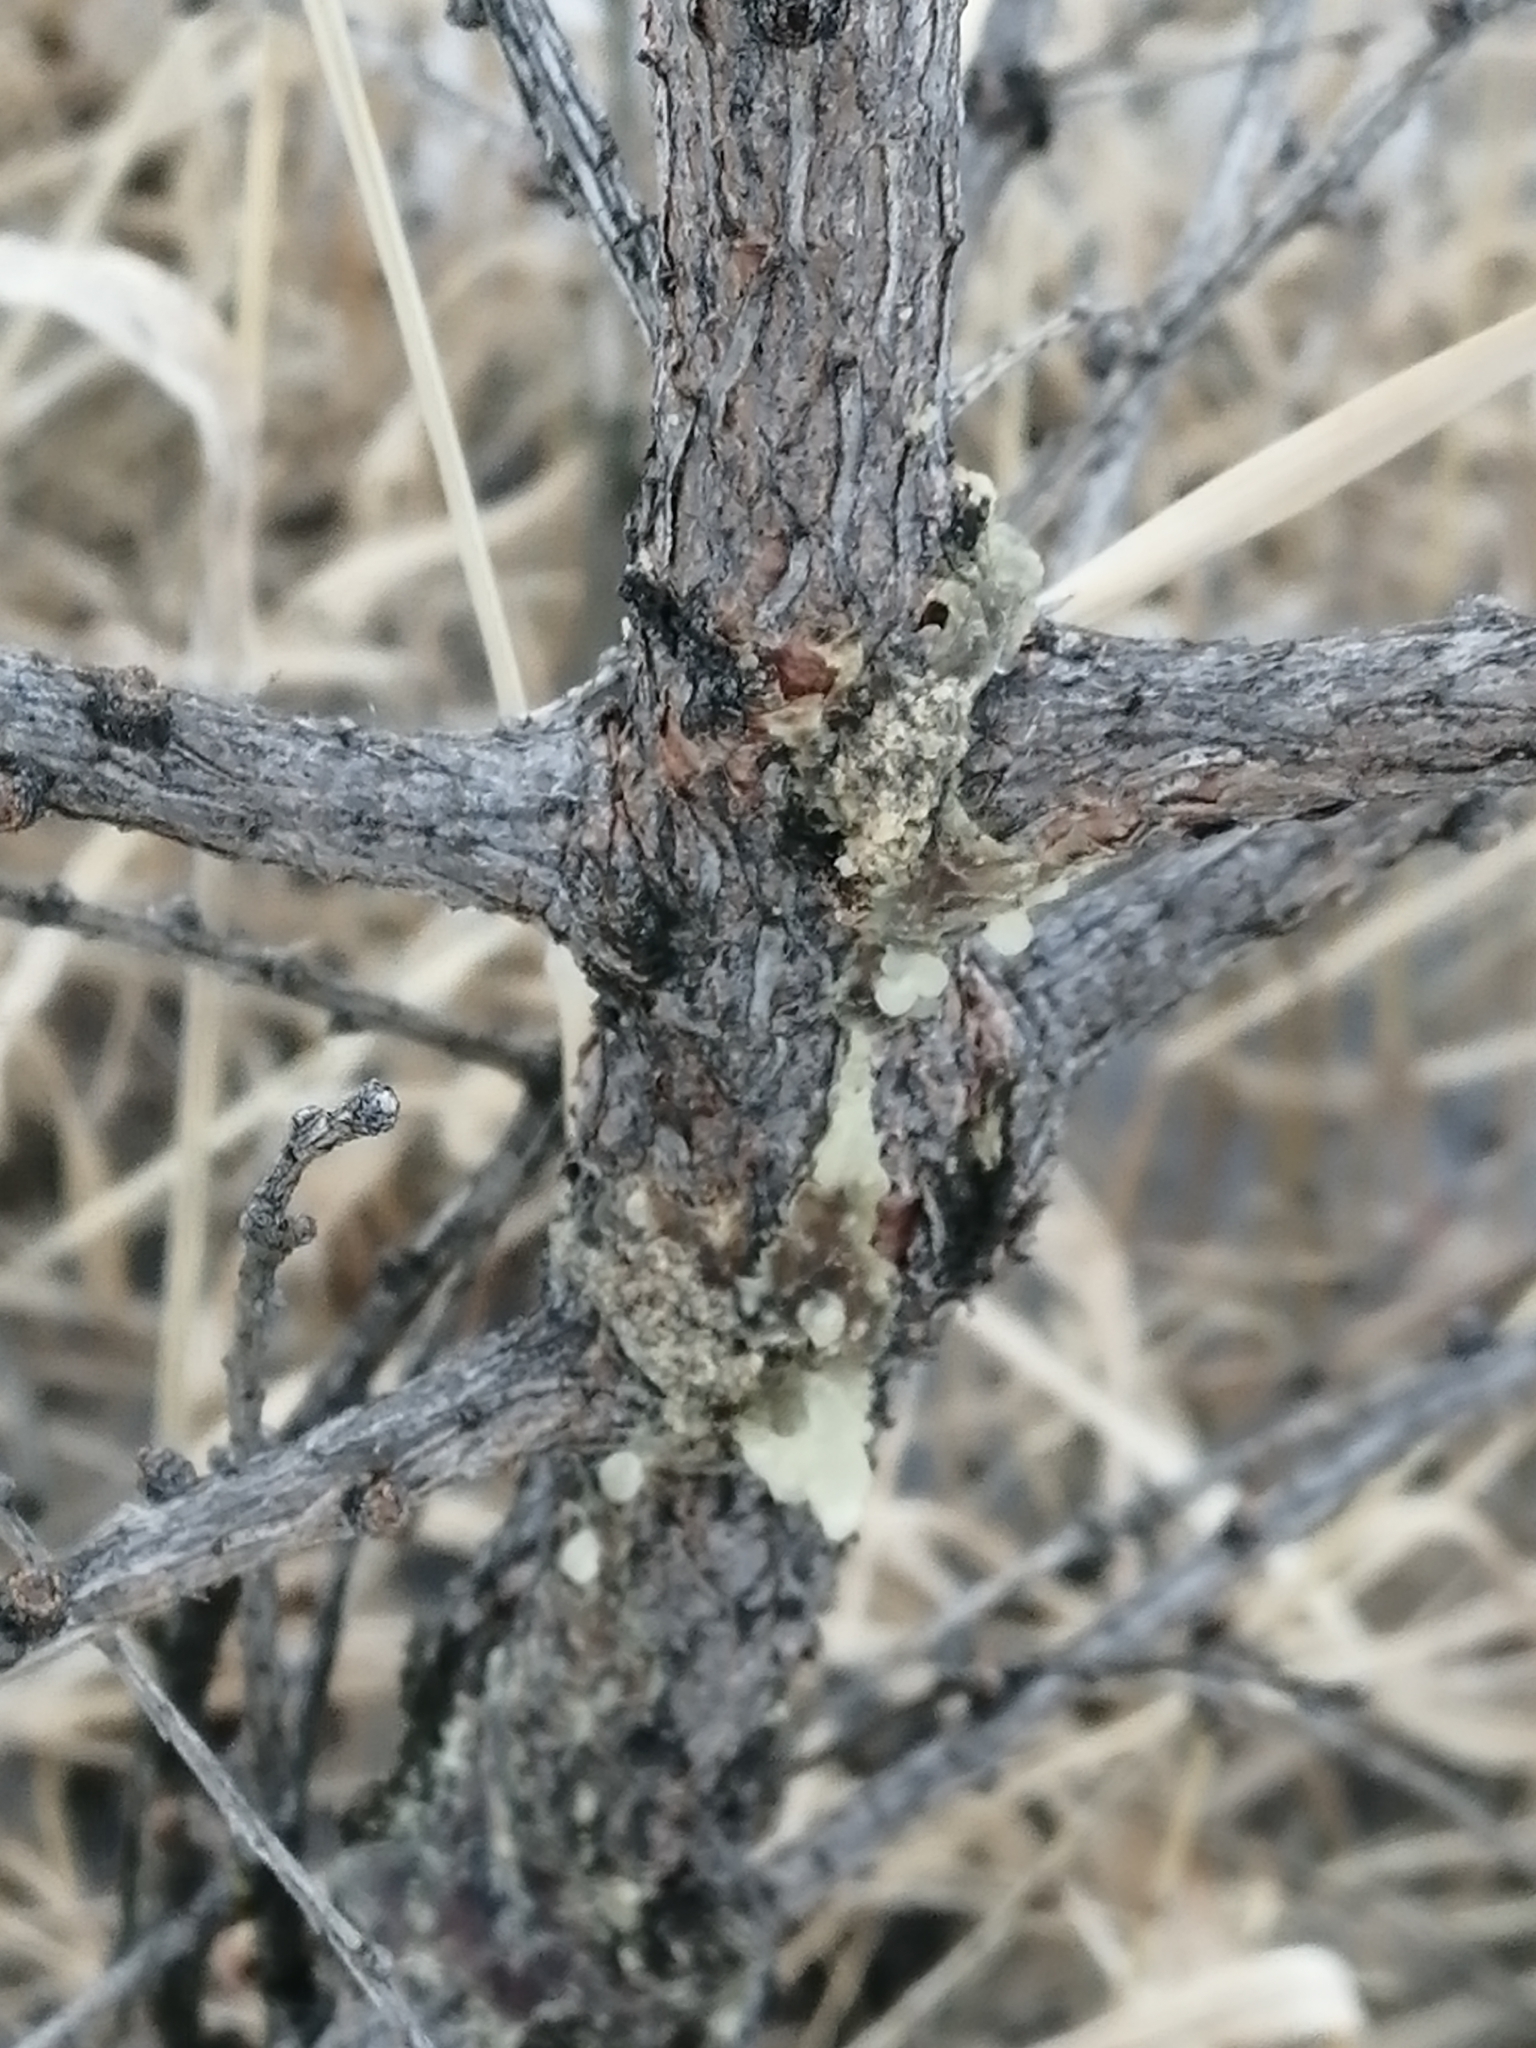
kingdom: Plantae
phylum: Tracheophyta
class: Pinopsida
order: Pinales
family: Pinaceae
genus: Larix
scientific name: Larix sibirica
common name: Siberian larch
